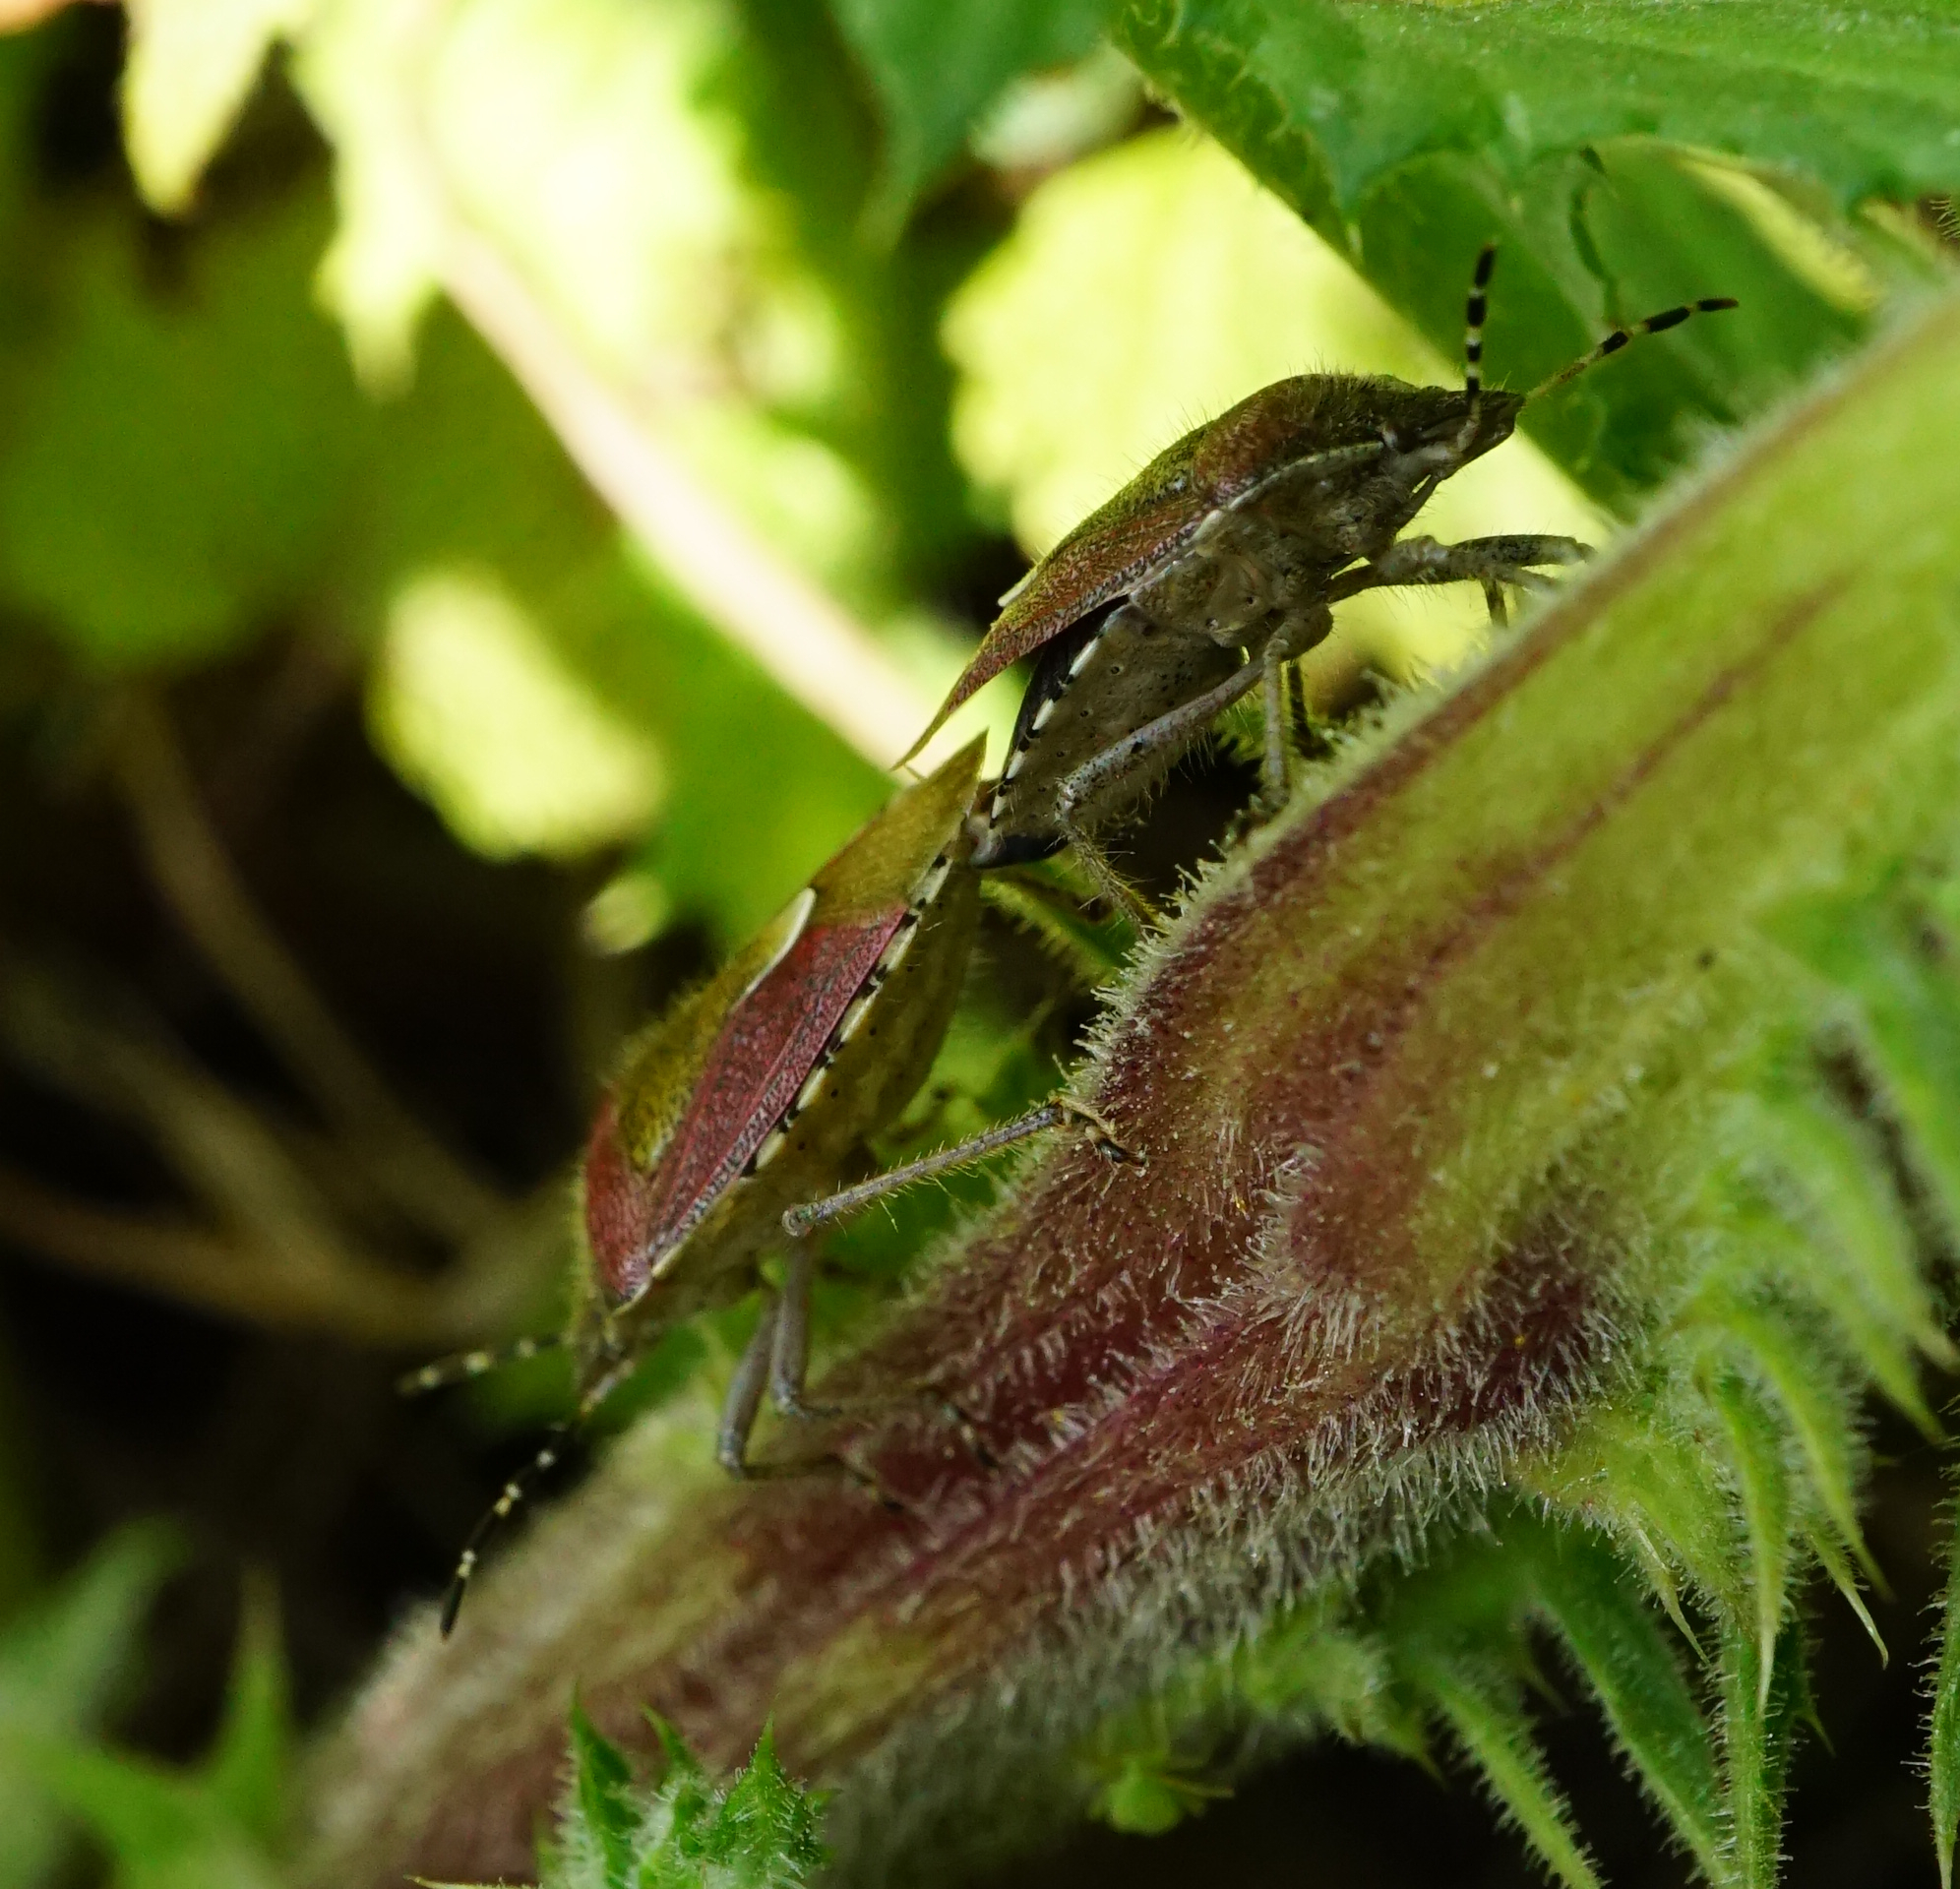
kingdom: Animalia
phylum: Arthropoda
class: Insecta
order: Hemiptera
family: Pentatomidae
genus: Dolycoris
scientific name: Dolycoris baccarum
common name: Sloe bug
